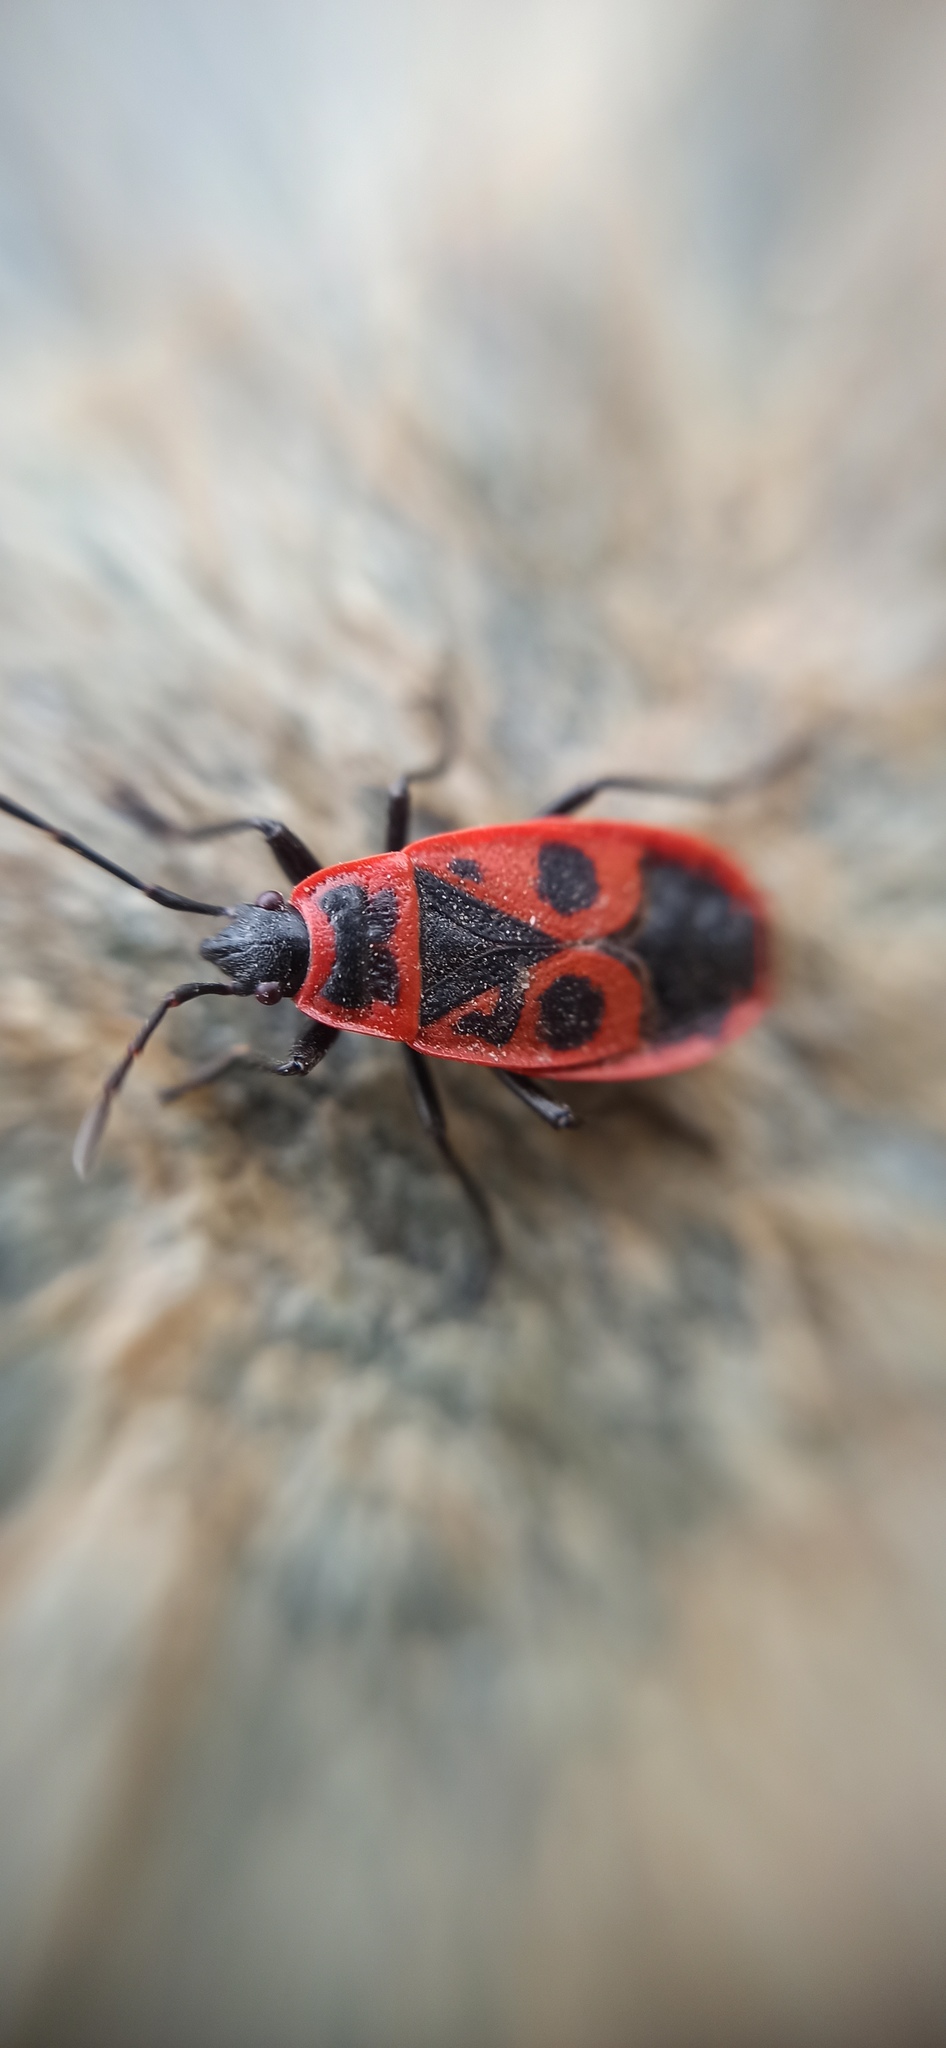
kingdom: Animalia
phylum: Arthropoda
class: Insecta
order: Hemiptera
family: Pyrrhocoridae
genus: Pyrrhocoris
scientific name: Pyrrhocoris apterus
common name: Firebug
